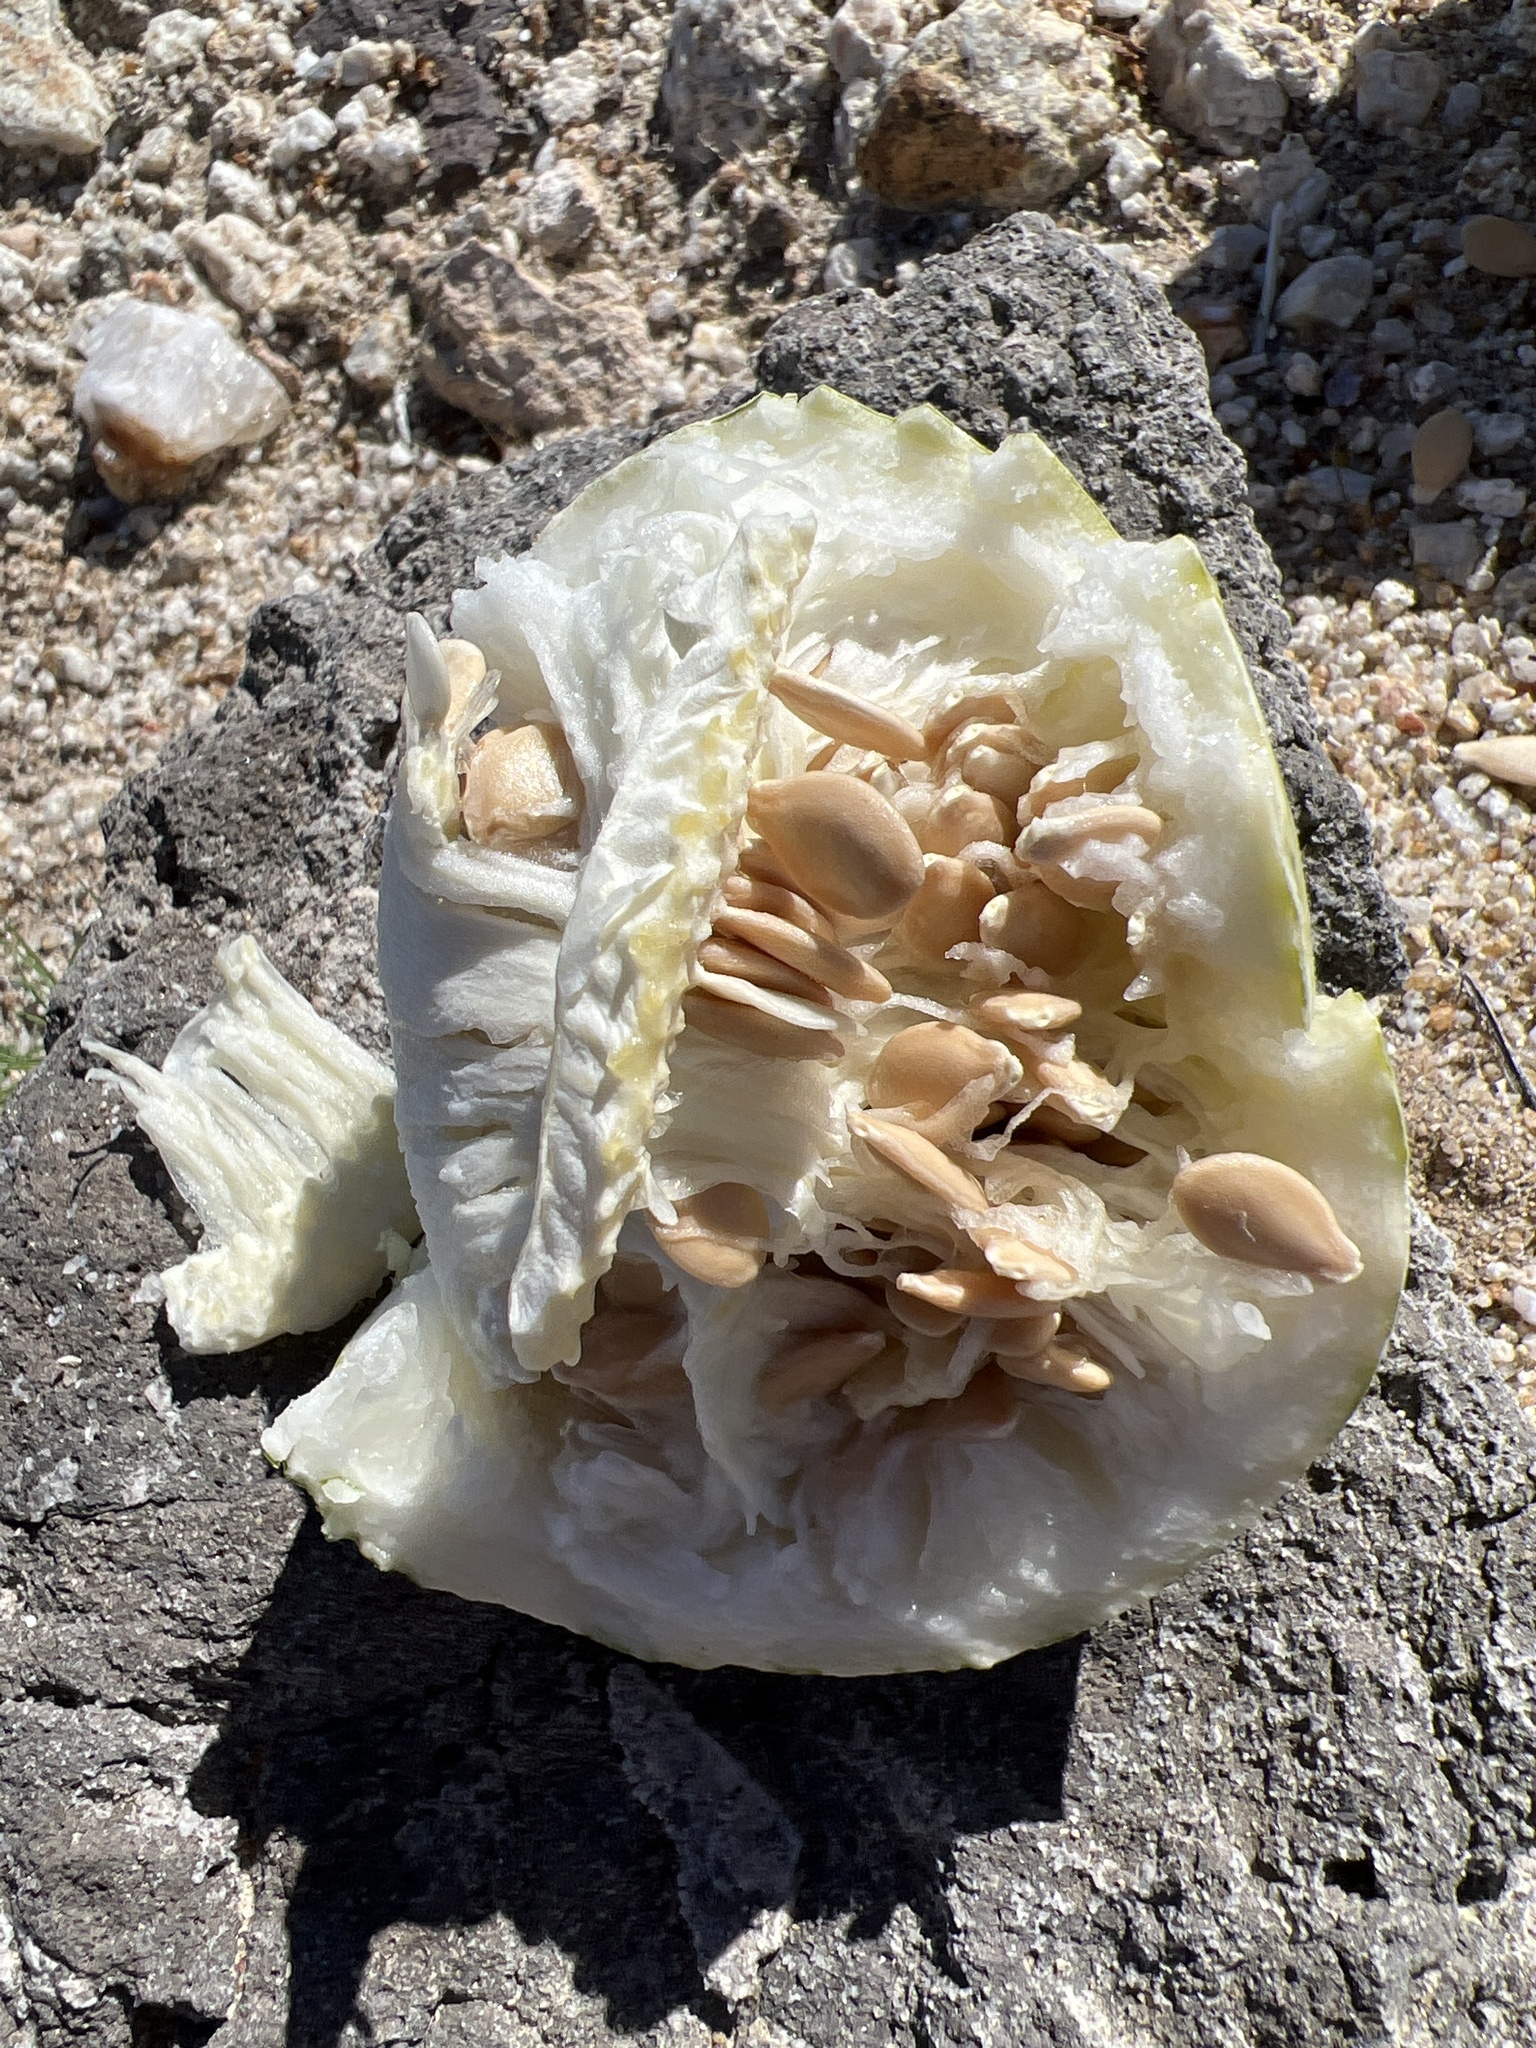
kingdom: Plantae
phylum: Tracheophyta
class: Magnoliopsida
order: Cucurbitales
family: Cucurbitaceae
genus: Cucurbita
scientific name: Cucurbita palmata
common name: Coyote-melon
